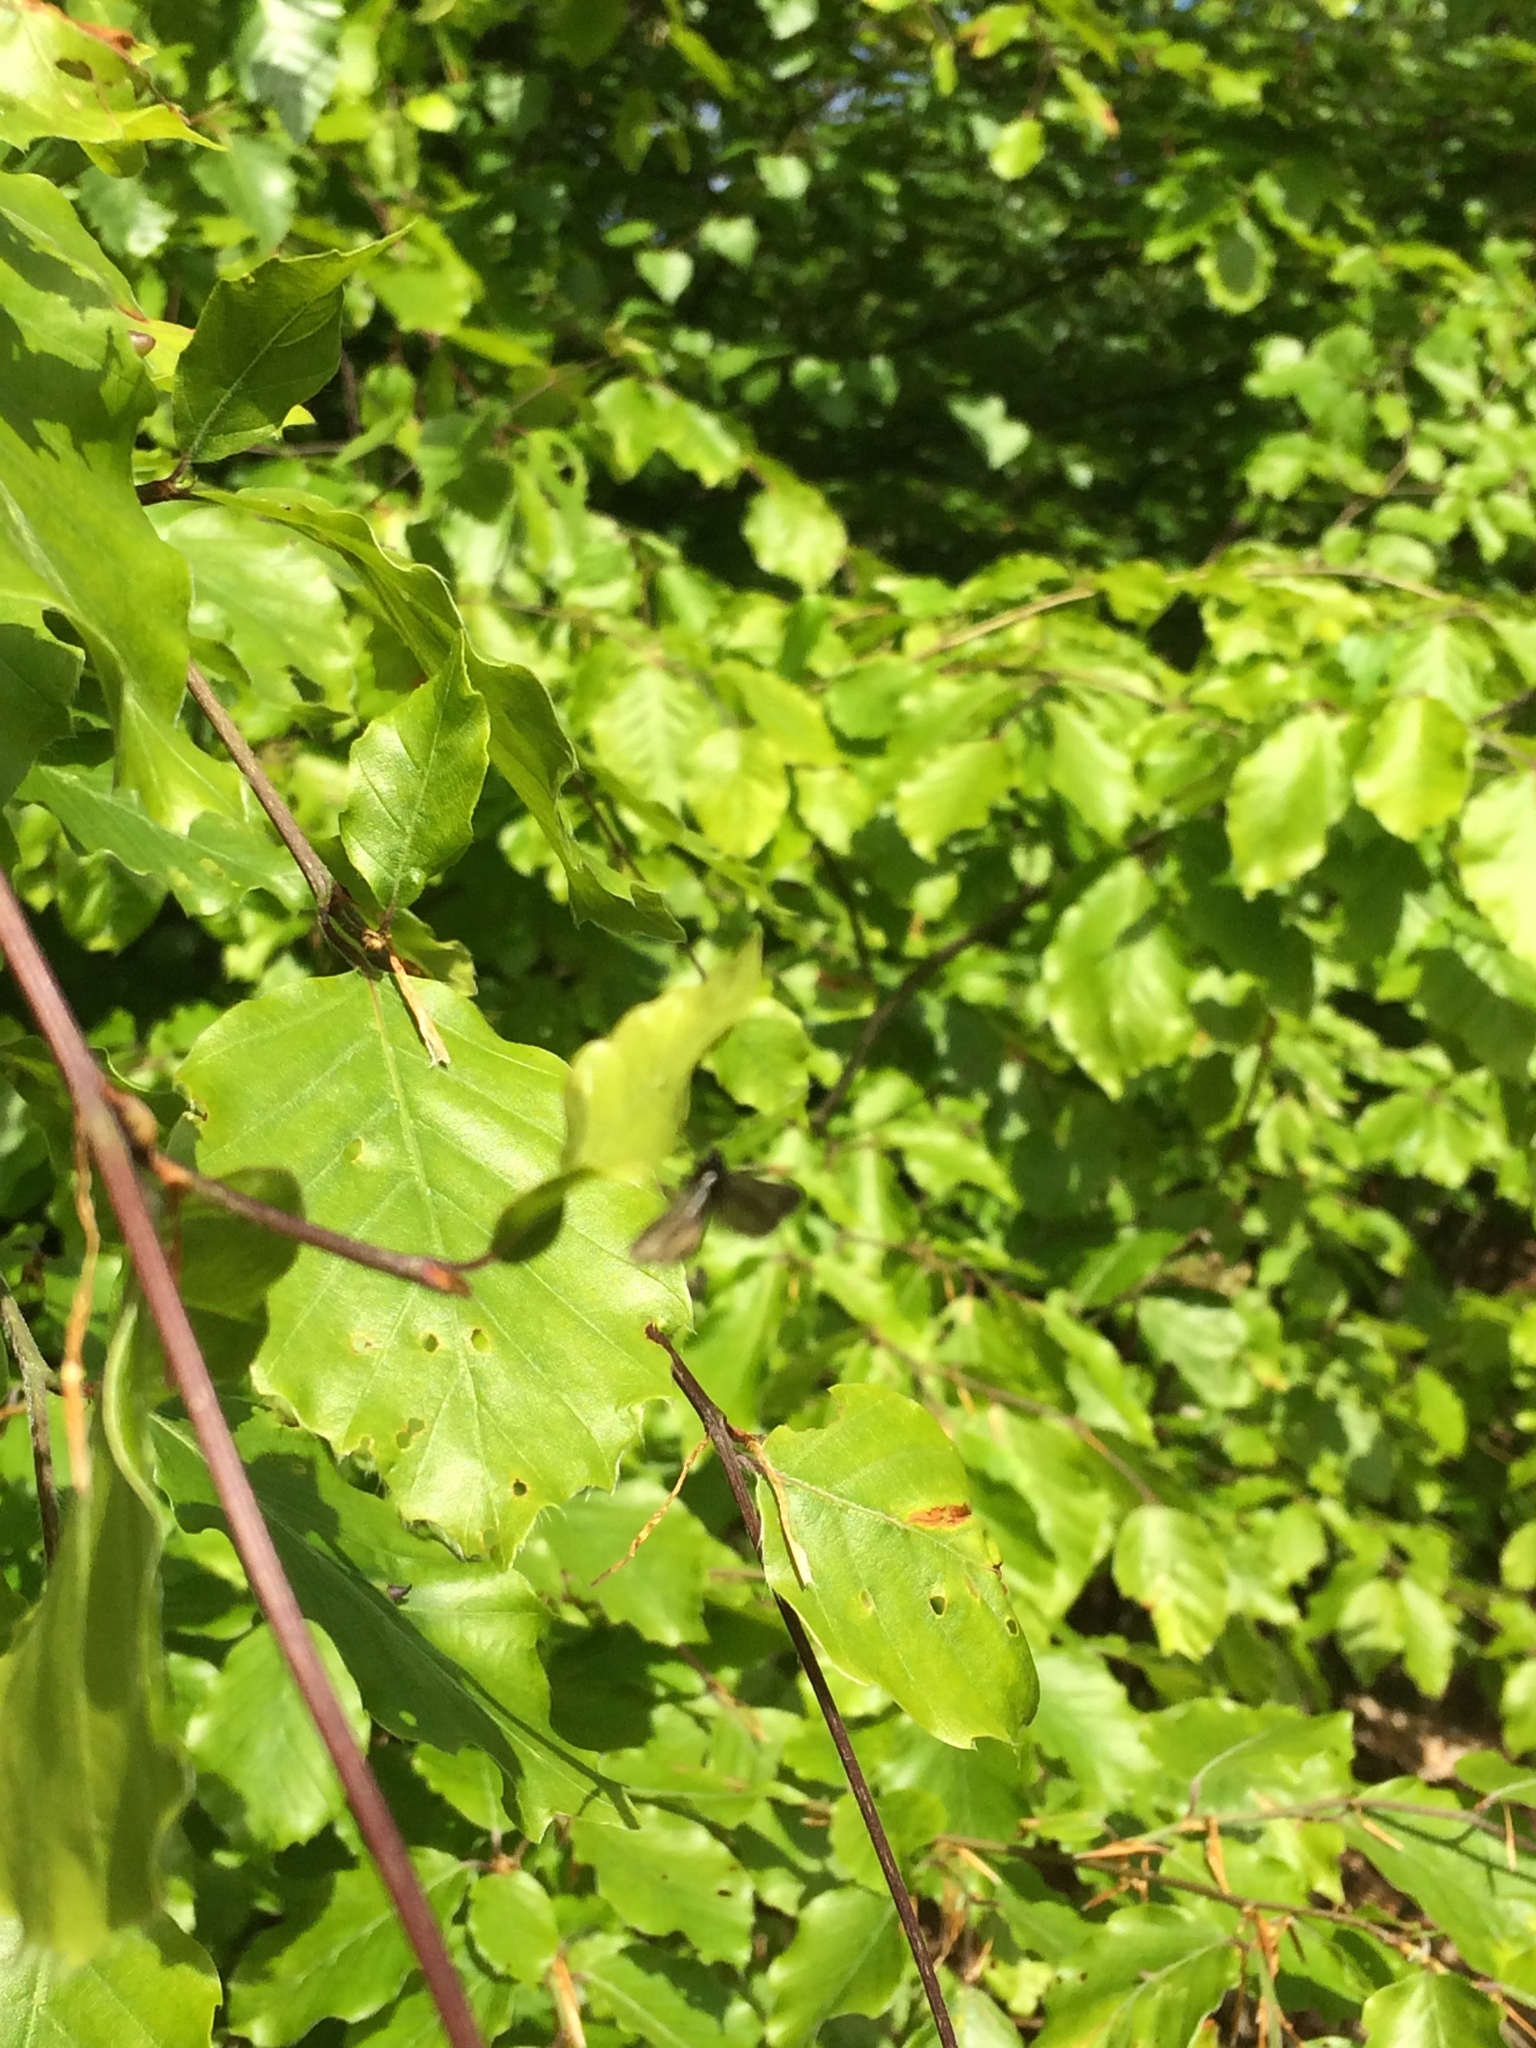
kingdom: Animalia
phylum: Arthropoda
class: Insecta
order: Lepidoptera
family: Adelidae
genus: Adela
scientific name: Adela viridella
